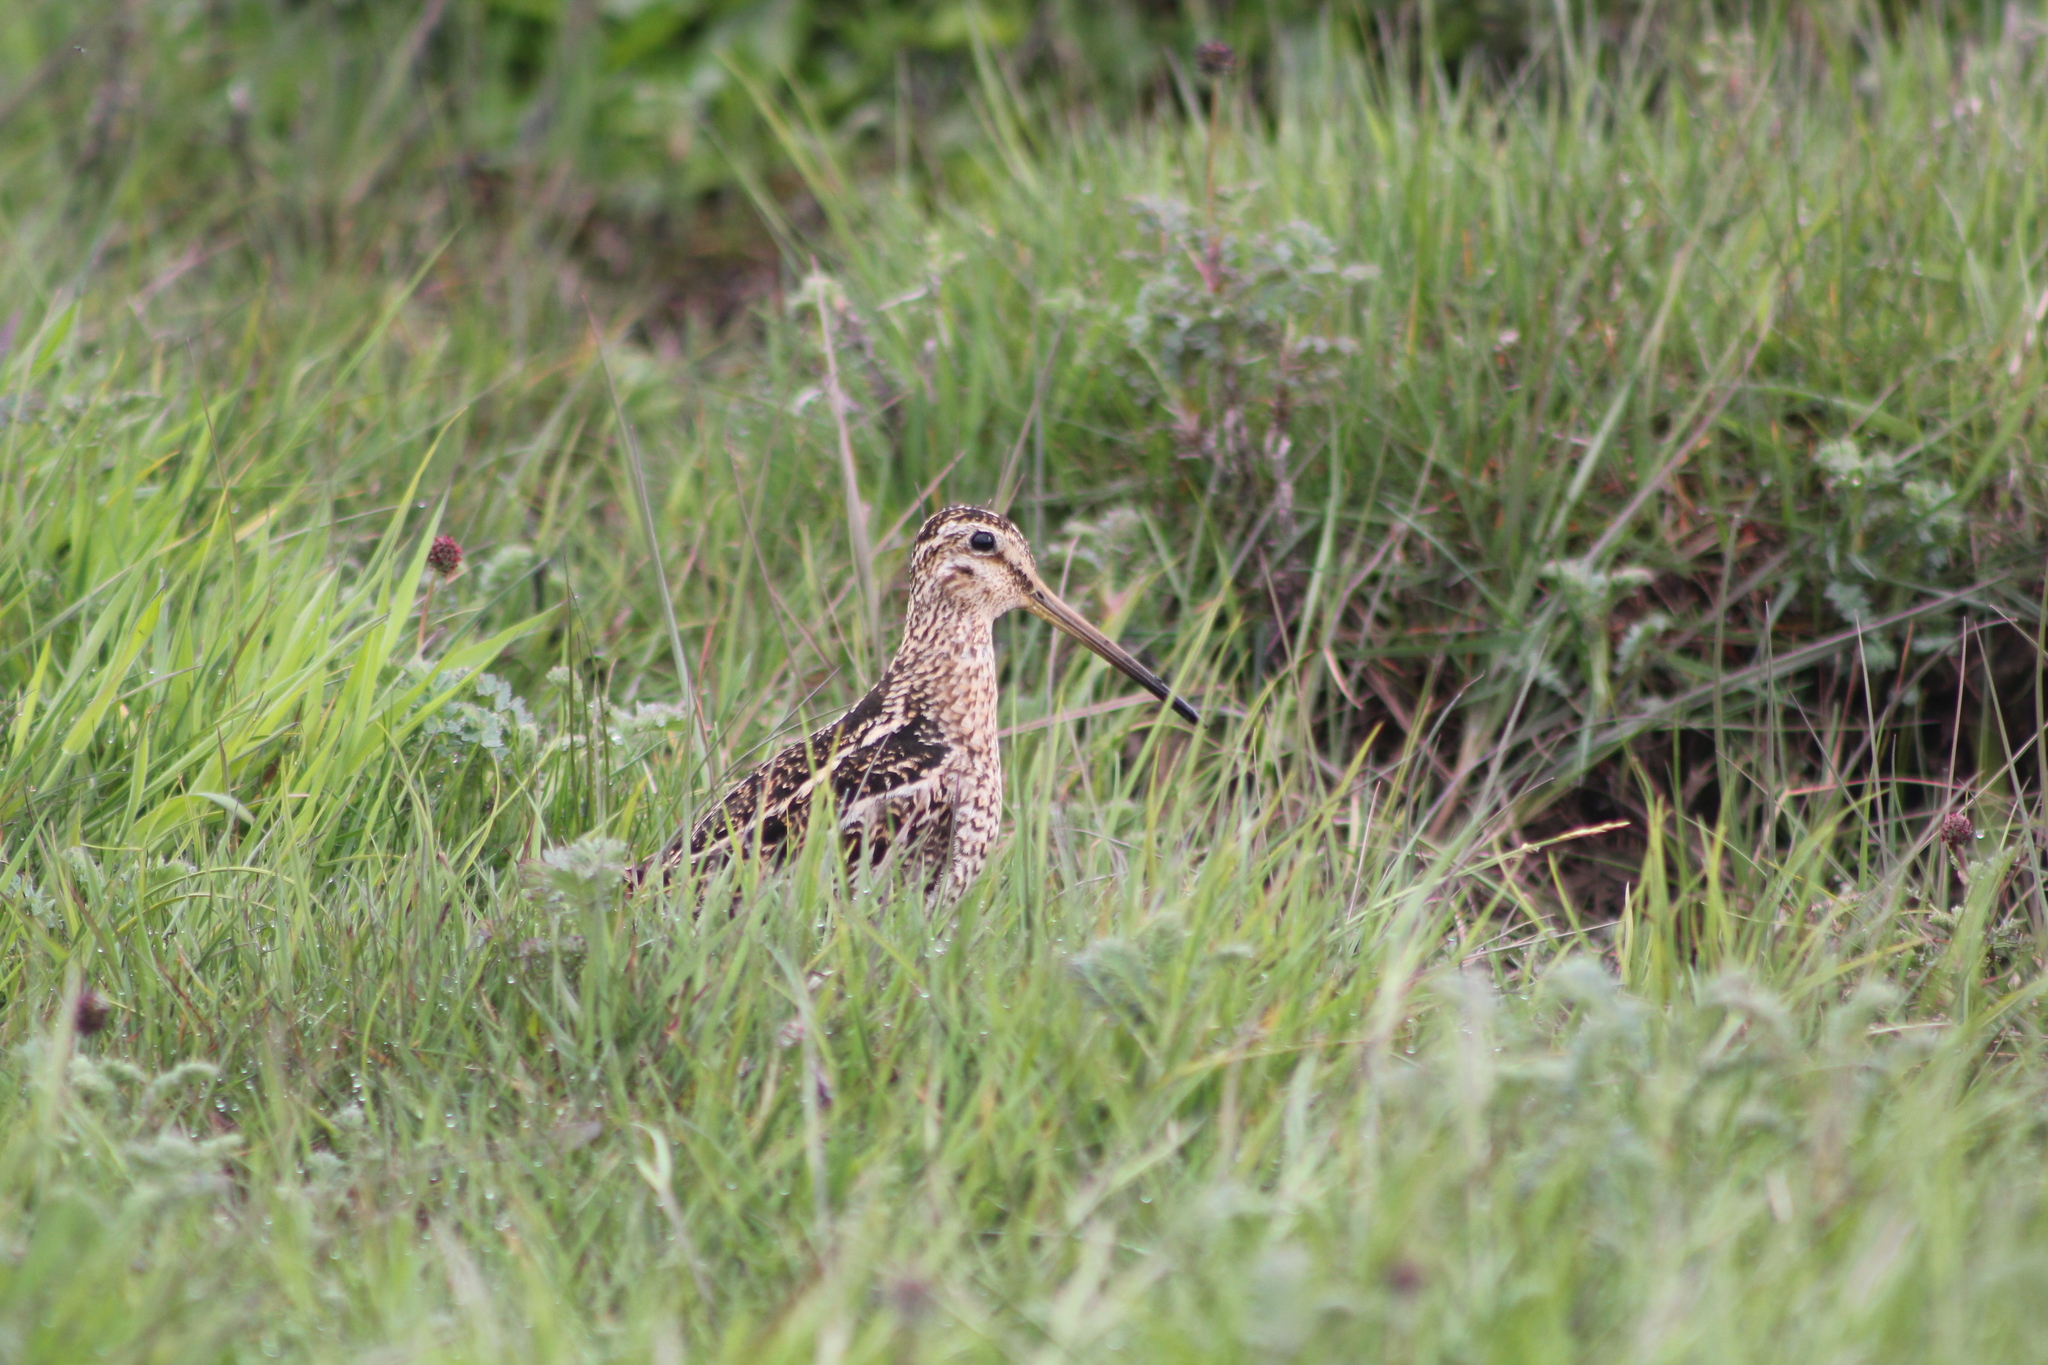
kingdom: Animalia
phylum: Chordata
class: Aves
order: Charadriiformes
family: Scolopacidae
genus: Gallinago
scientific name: Gallinago magellanica
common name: Magellanic snipe
